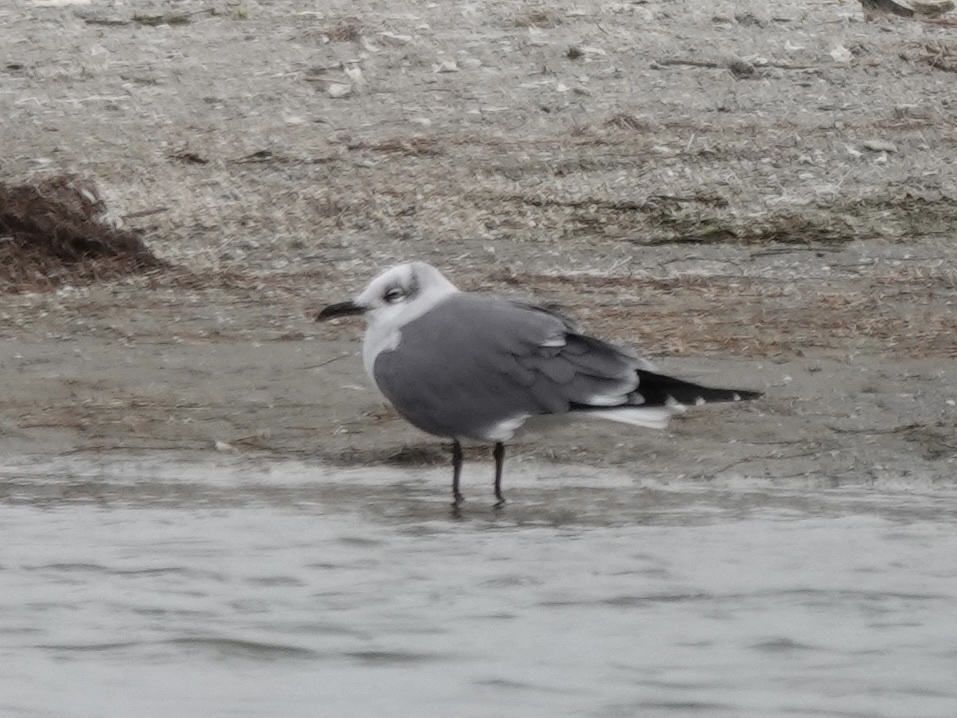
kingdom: Animalia
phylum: Chordata
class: Aves
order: Charadriiformes
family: Laridae
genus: Leucophaeus
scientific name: Leucophaeus atricilla
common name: Laughing gull
